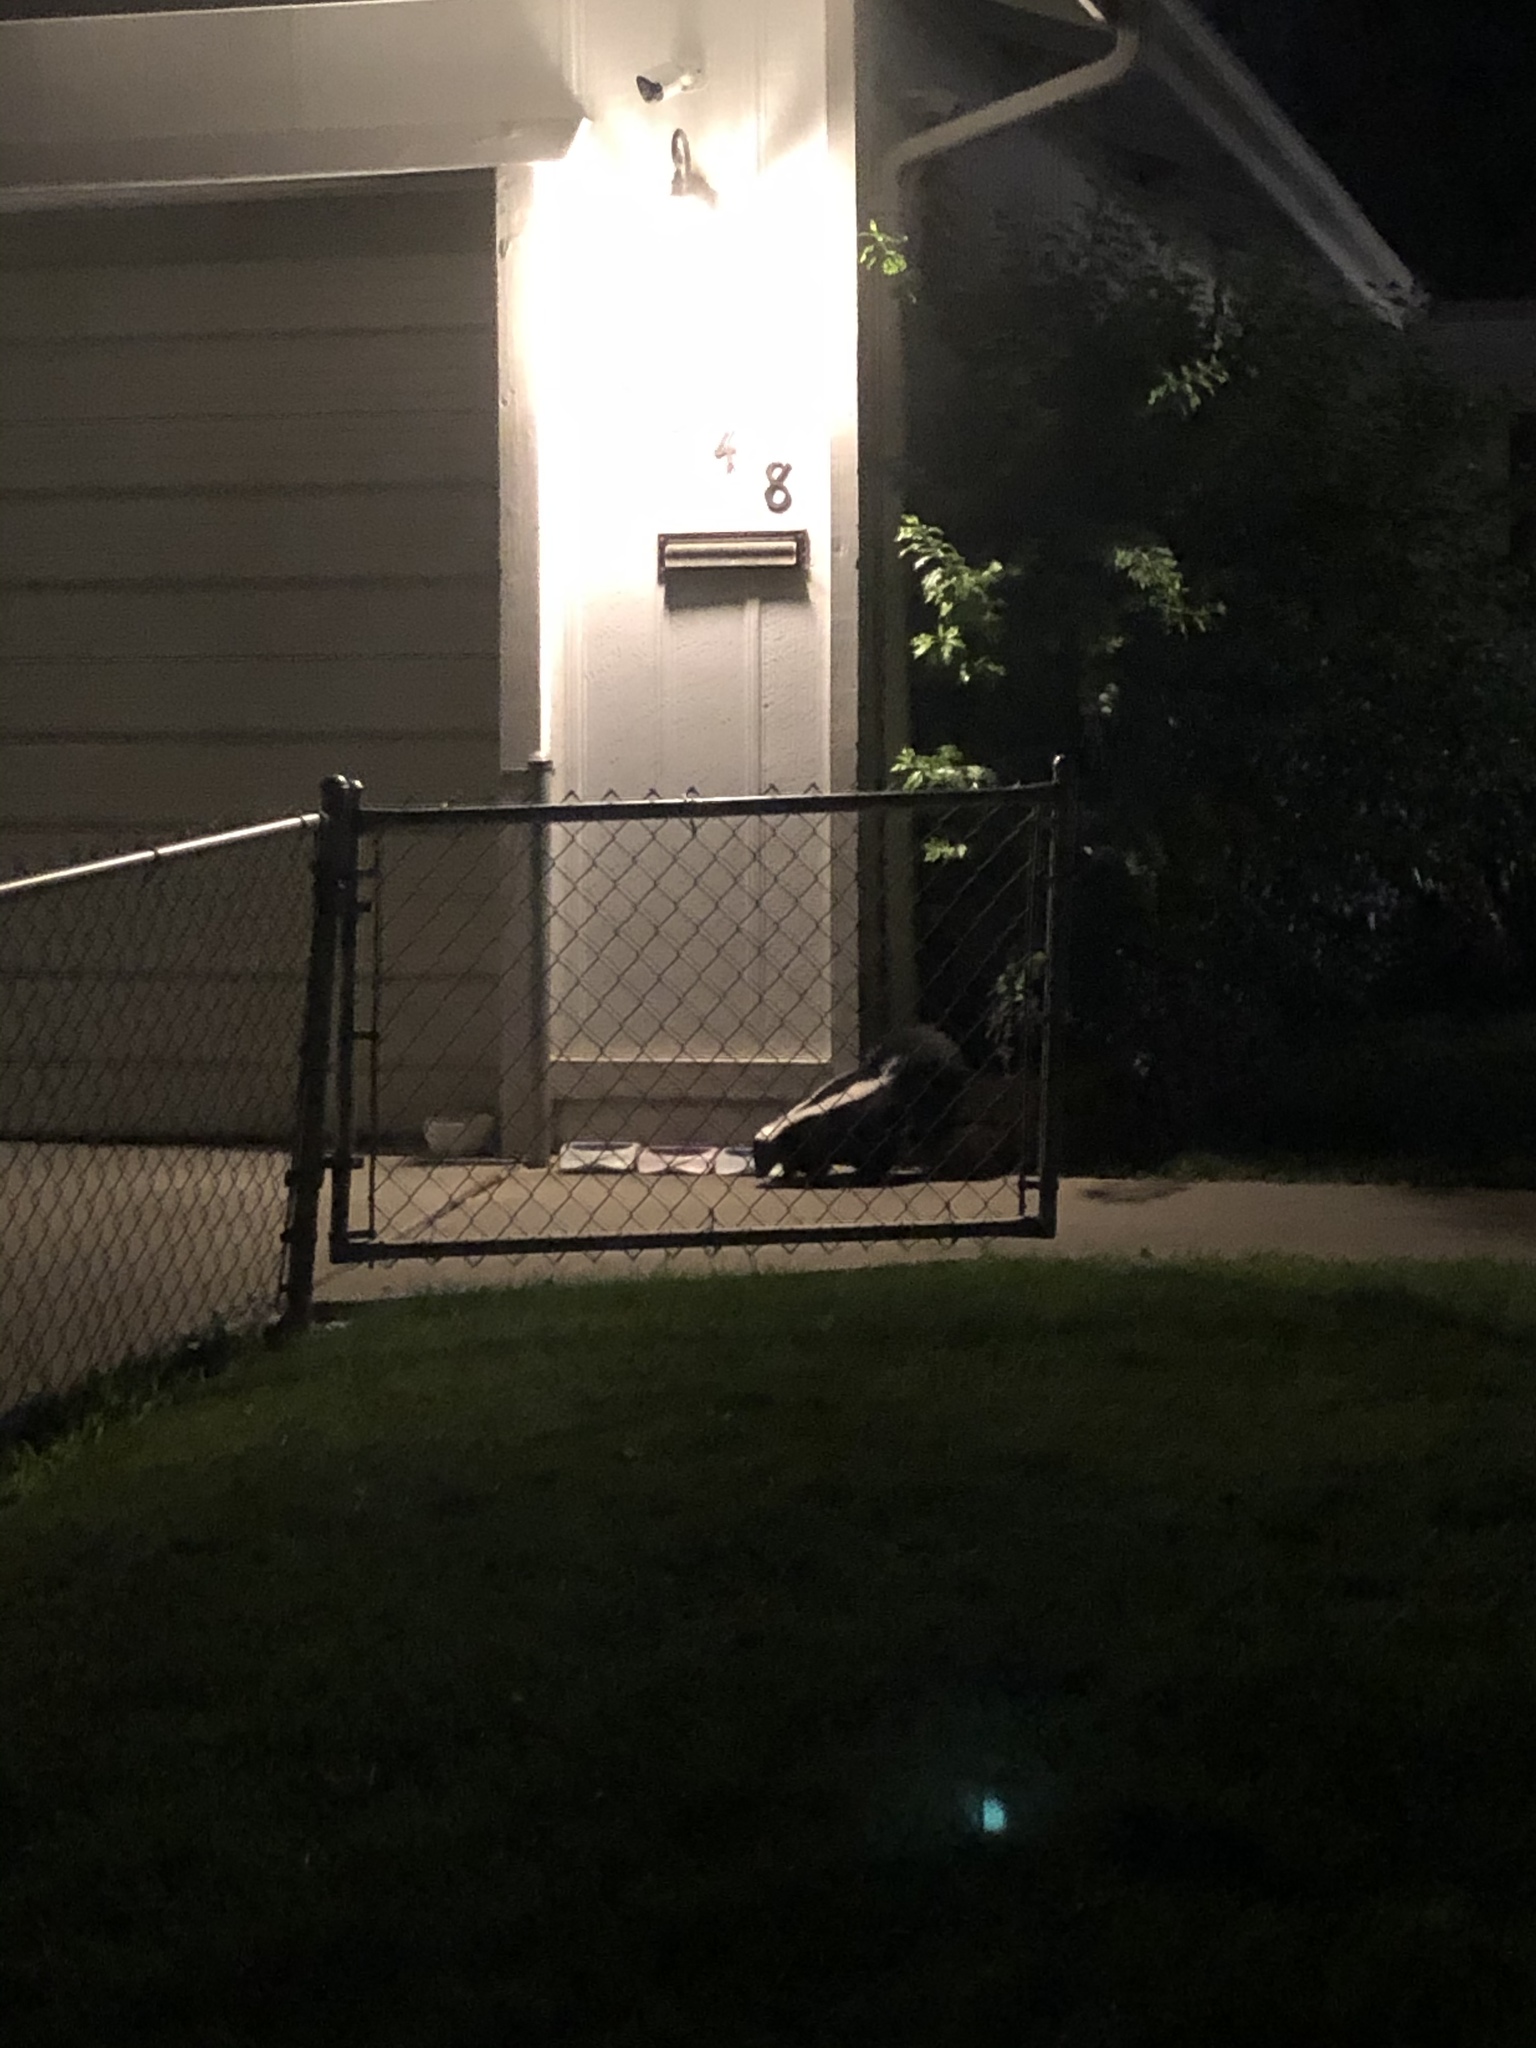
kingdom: Animalia
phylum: Chordata
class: Mammalia
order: Carnivora
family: Mephitidae
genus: Mephitis
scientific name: Mephitis mephitis
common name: Striped skunk
